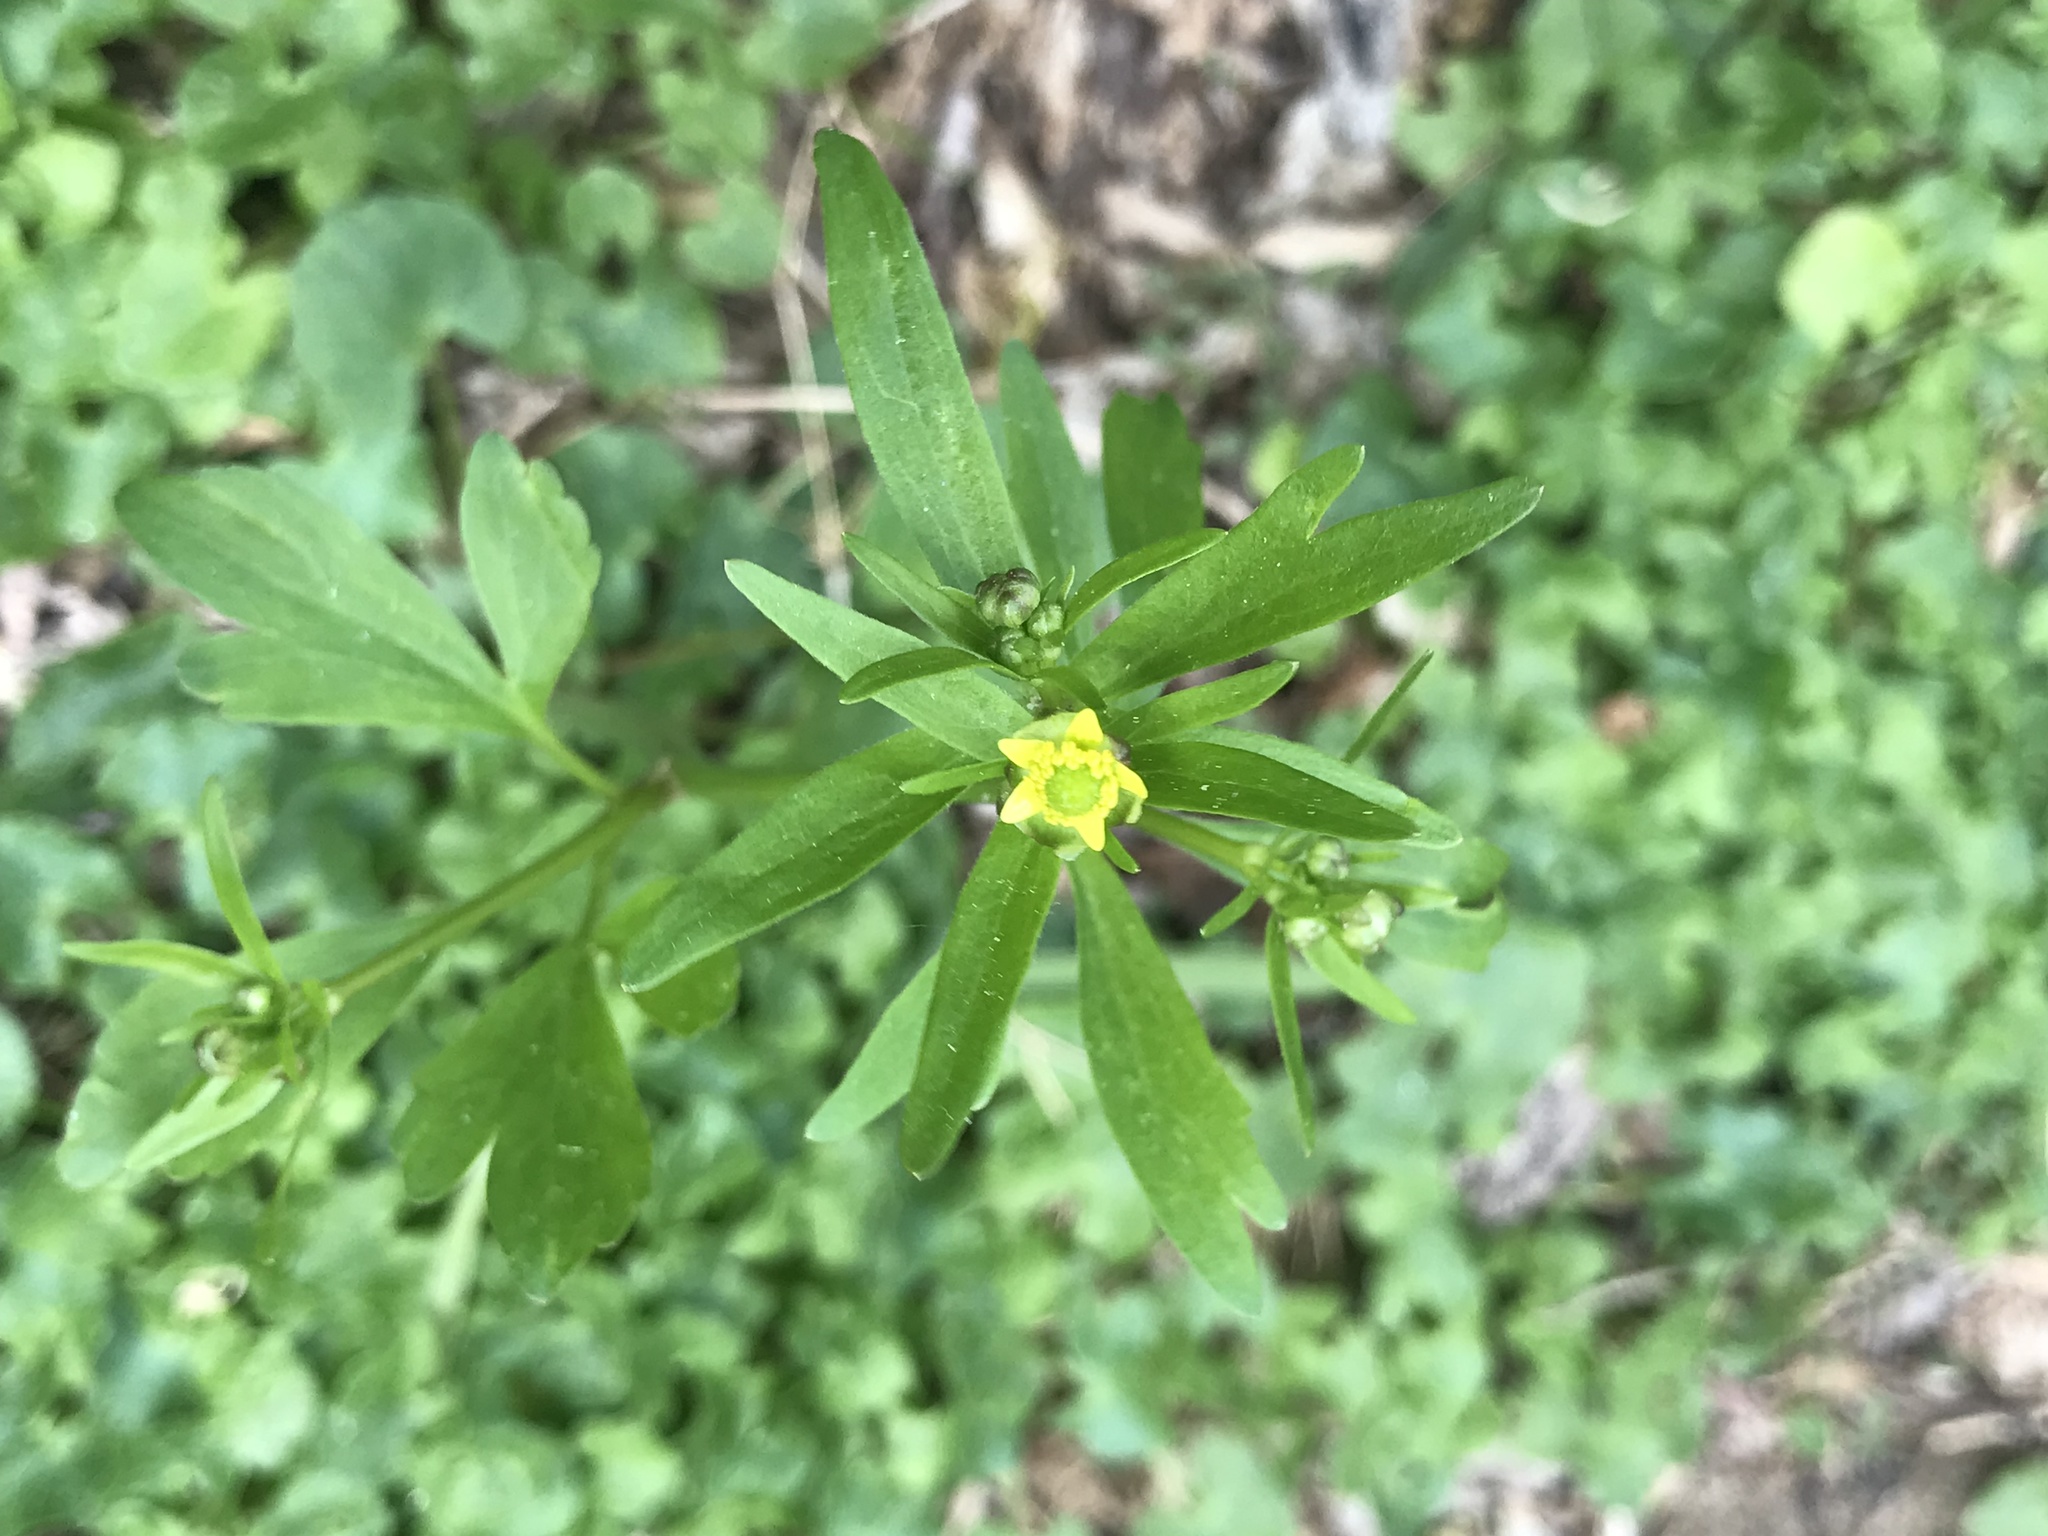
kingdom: Plantae
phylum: Tracheophyta
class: Magnoliopsida
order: Ranunculales
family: Ranunculaceae
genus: Ranunculus
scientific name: Ranunculus abortivus
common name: Early wood buttercup
